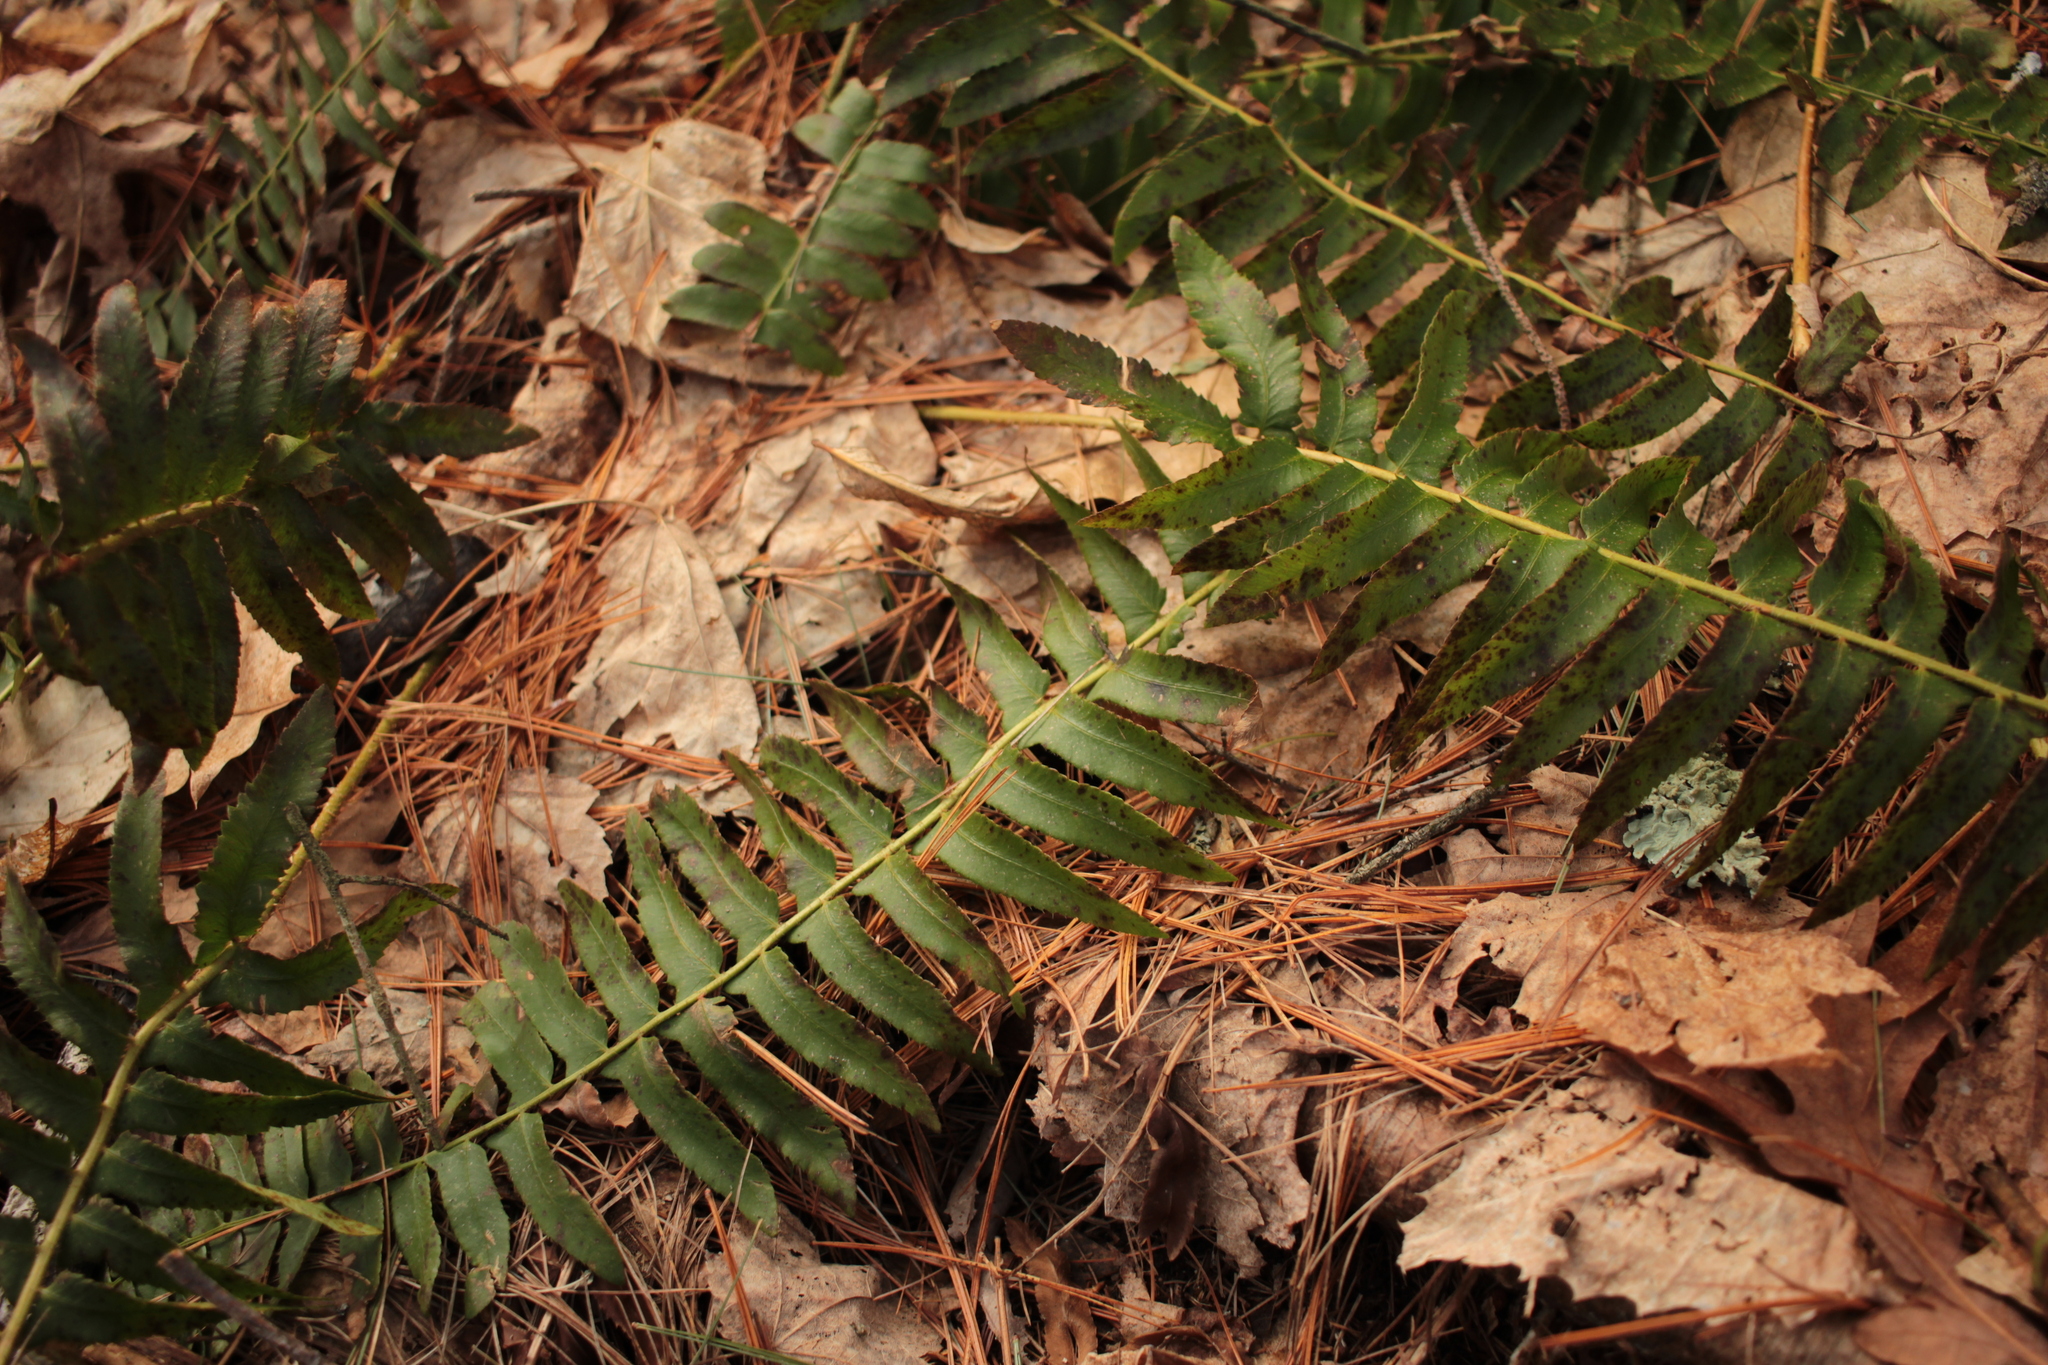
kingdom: Plantae
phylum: Tracheophyta
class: Polypodiopsida
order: Polypodiales
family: Dryopteridaceae
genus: Polystichum
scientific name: Polystichum acrostichoides
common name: Christmas fern
